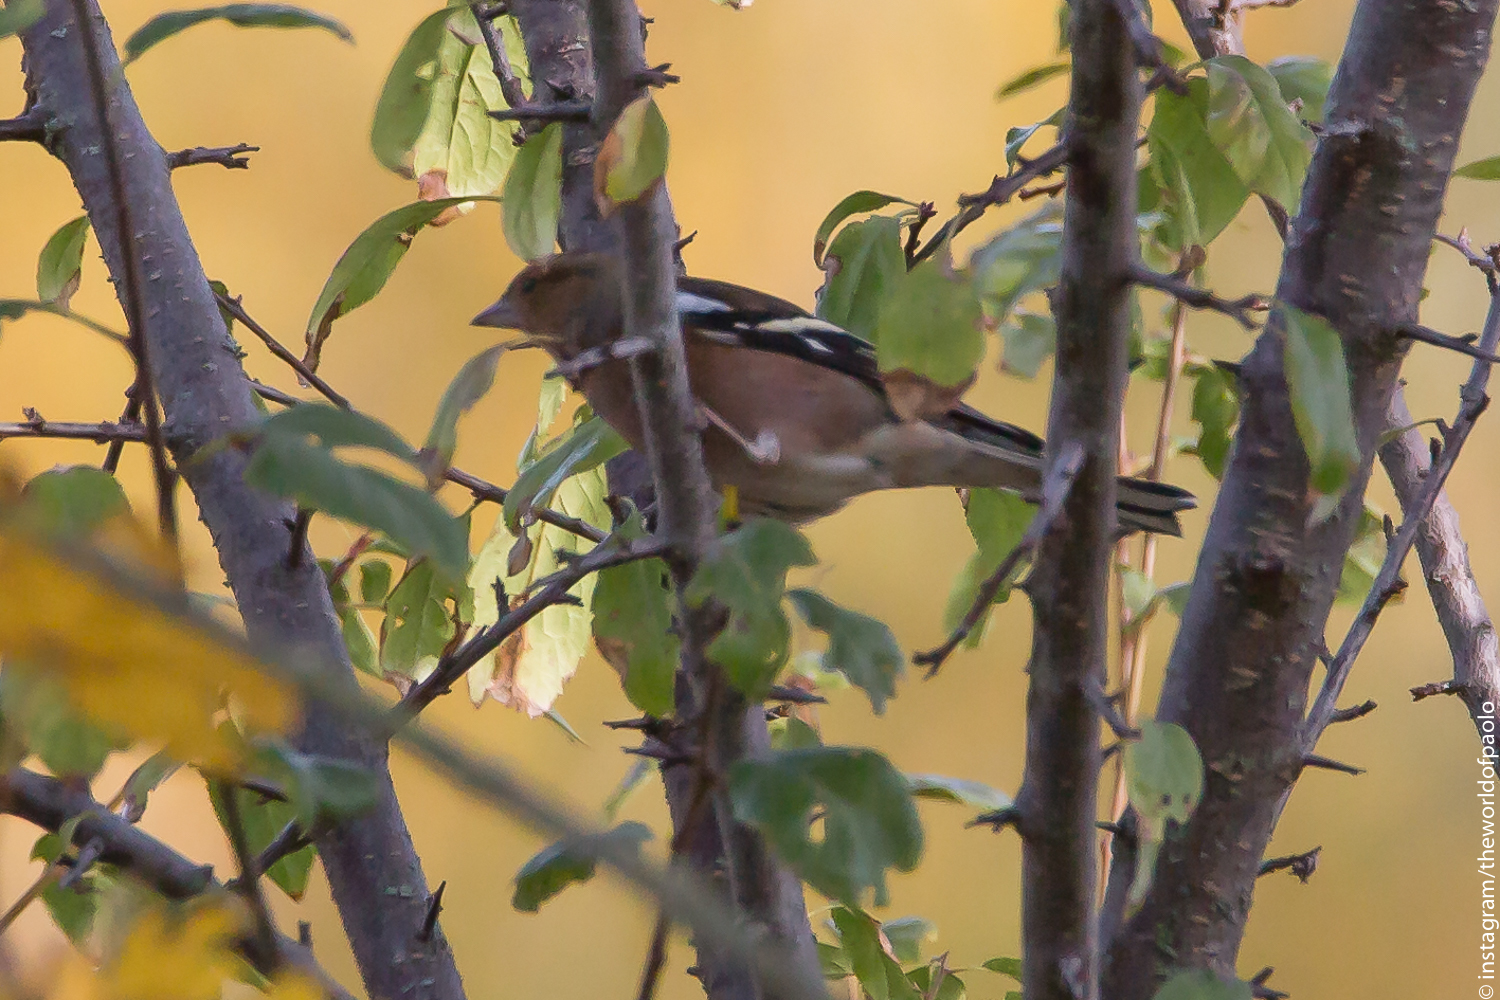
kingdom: Animalia
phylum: Chordata
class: Aves
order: Passeriformes
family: Fringillidae
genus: Fringilla
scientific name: Fringilla coelebs
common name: Common chaffinch
